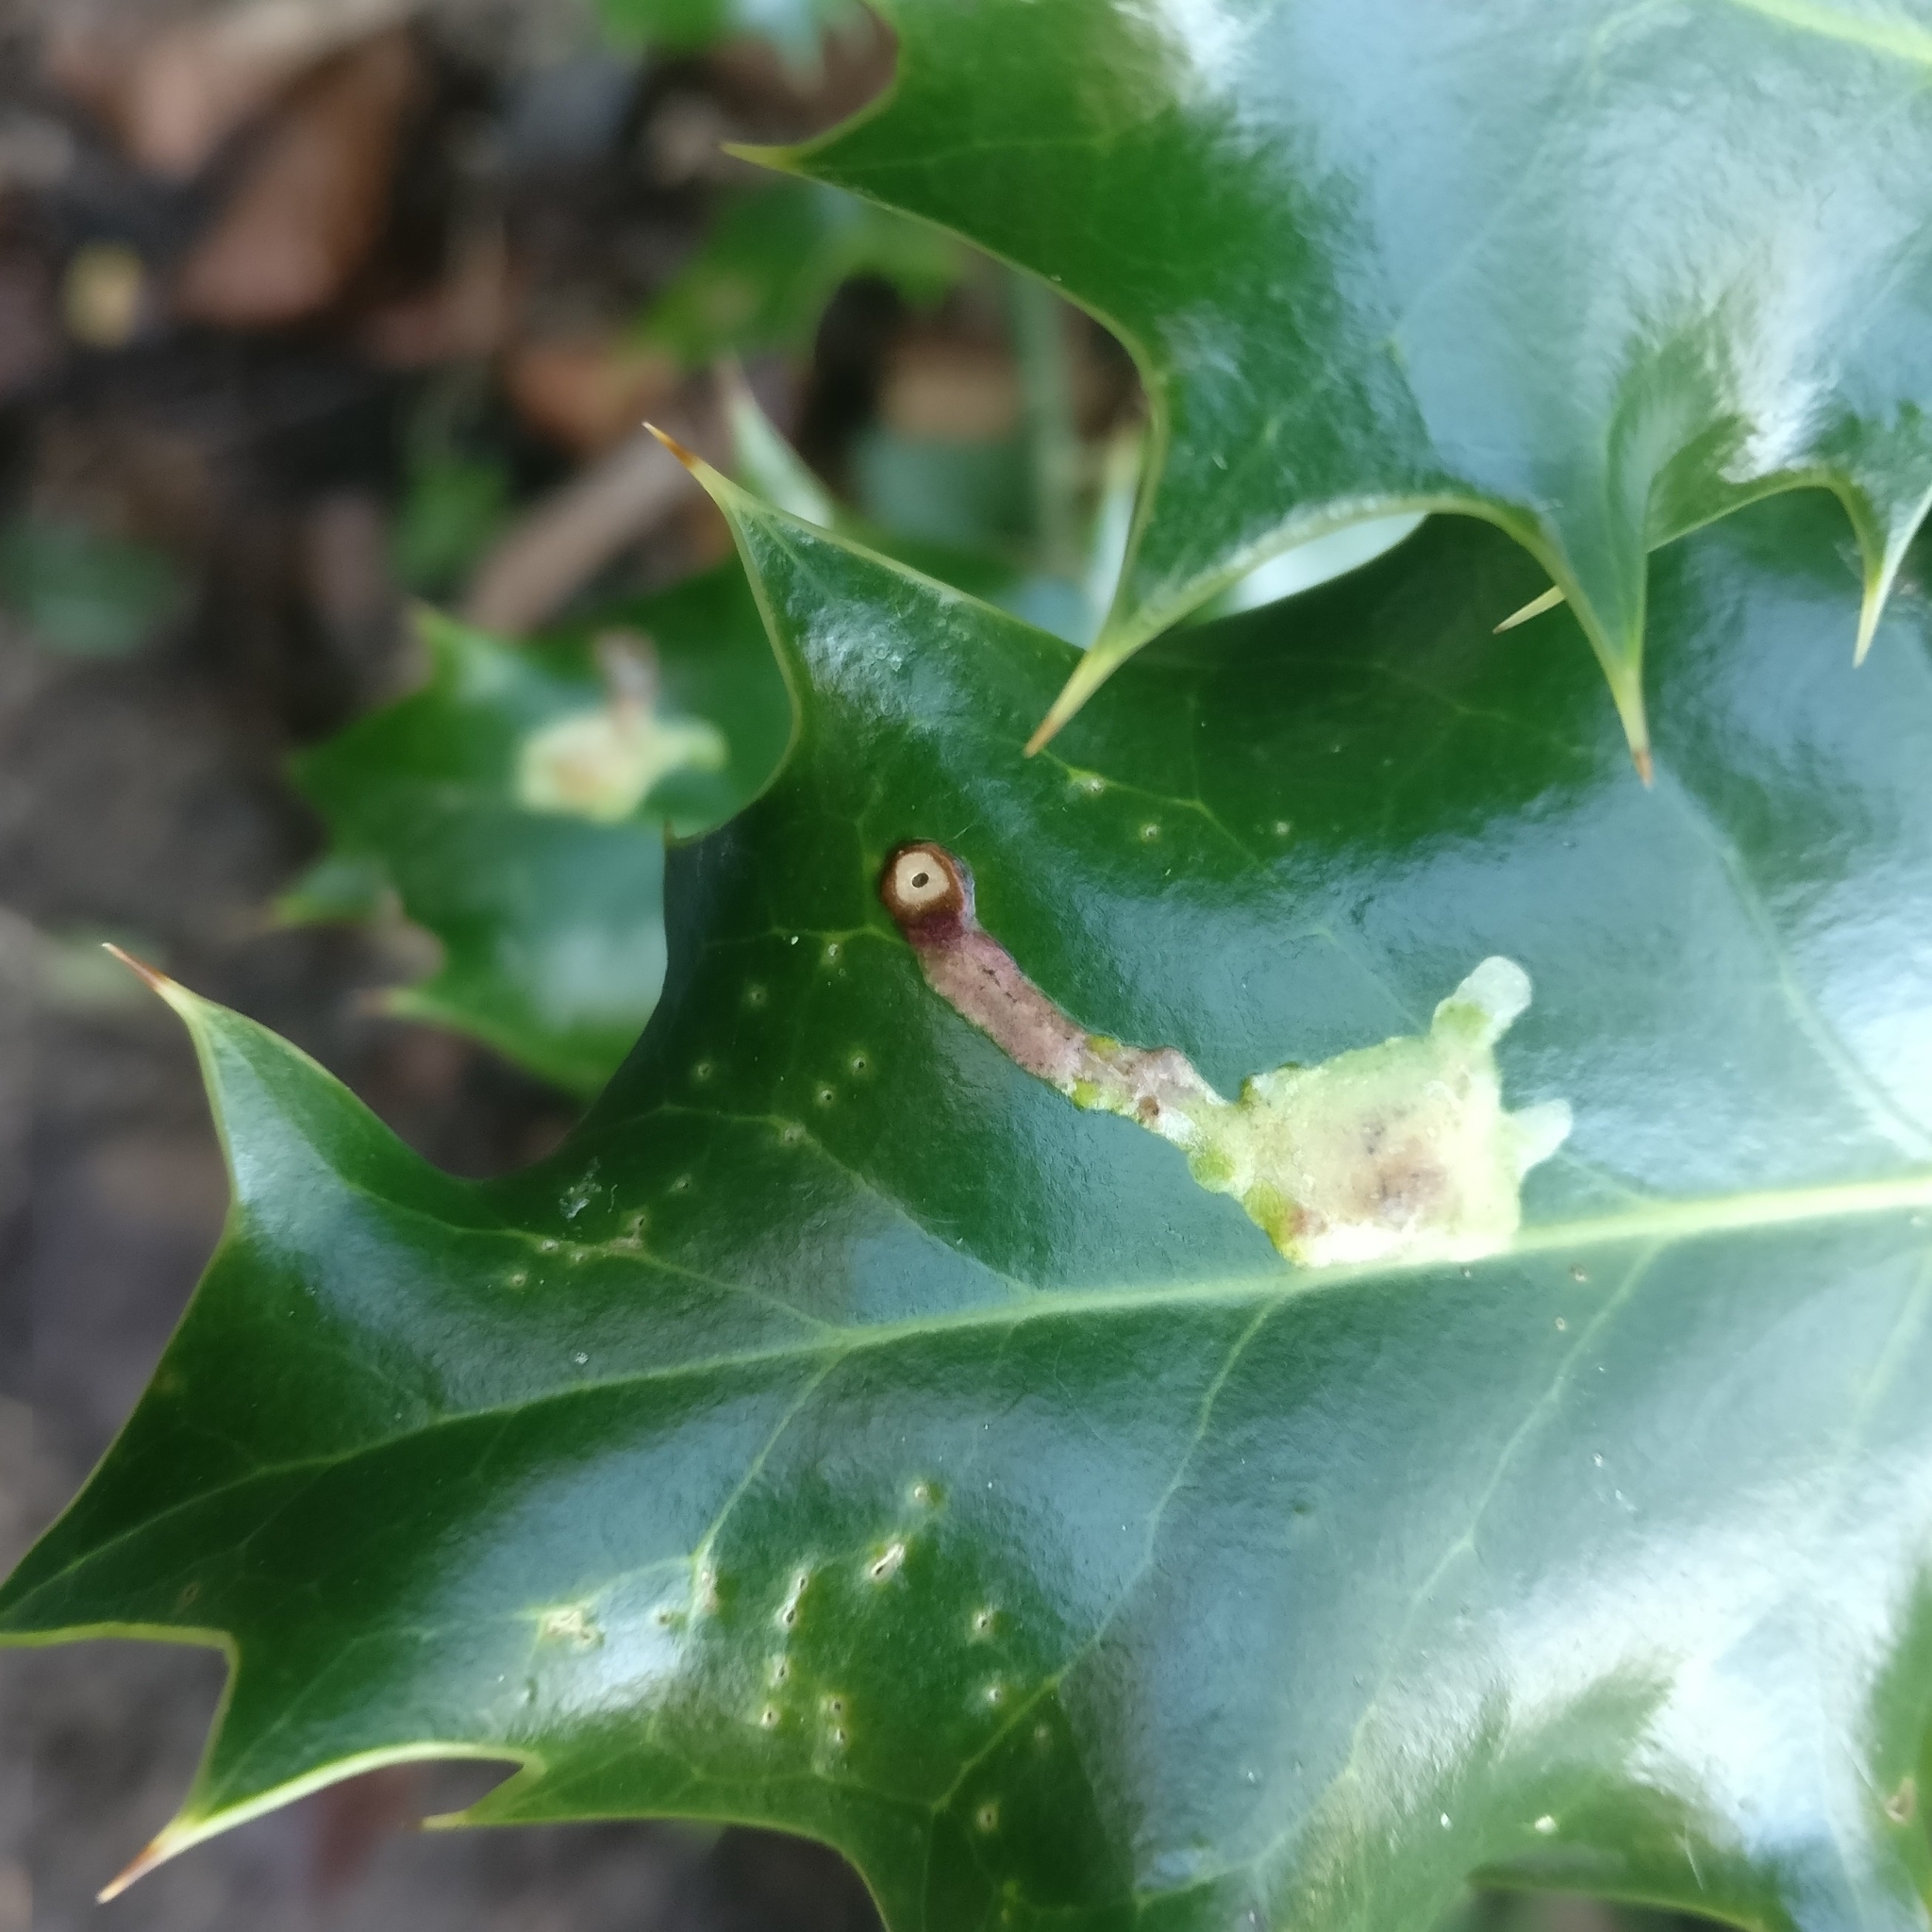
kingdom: Animalia
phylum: Arthropoda
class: Insecta
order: Diptera
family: Agromyzidae
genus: Phytomyza
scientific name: Phytomyza ilicis
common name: Holly leafminer
